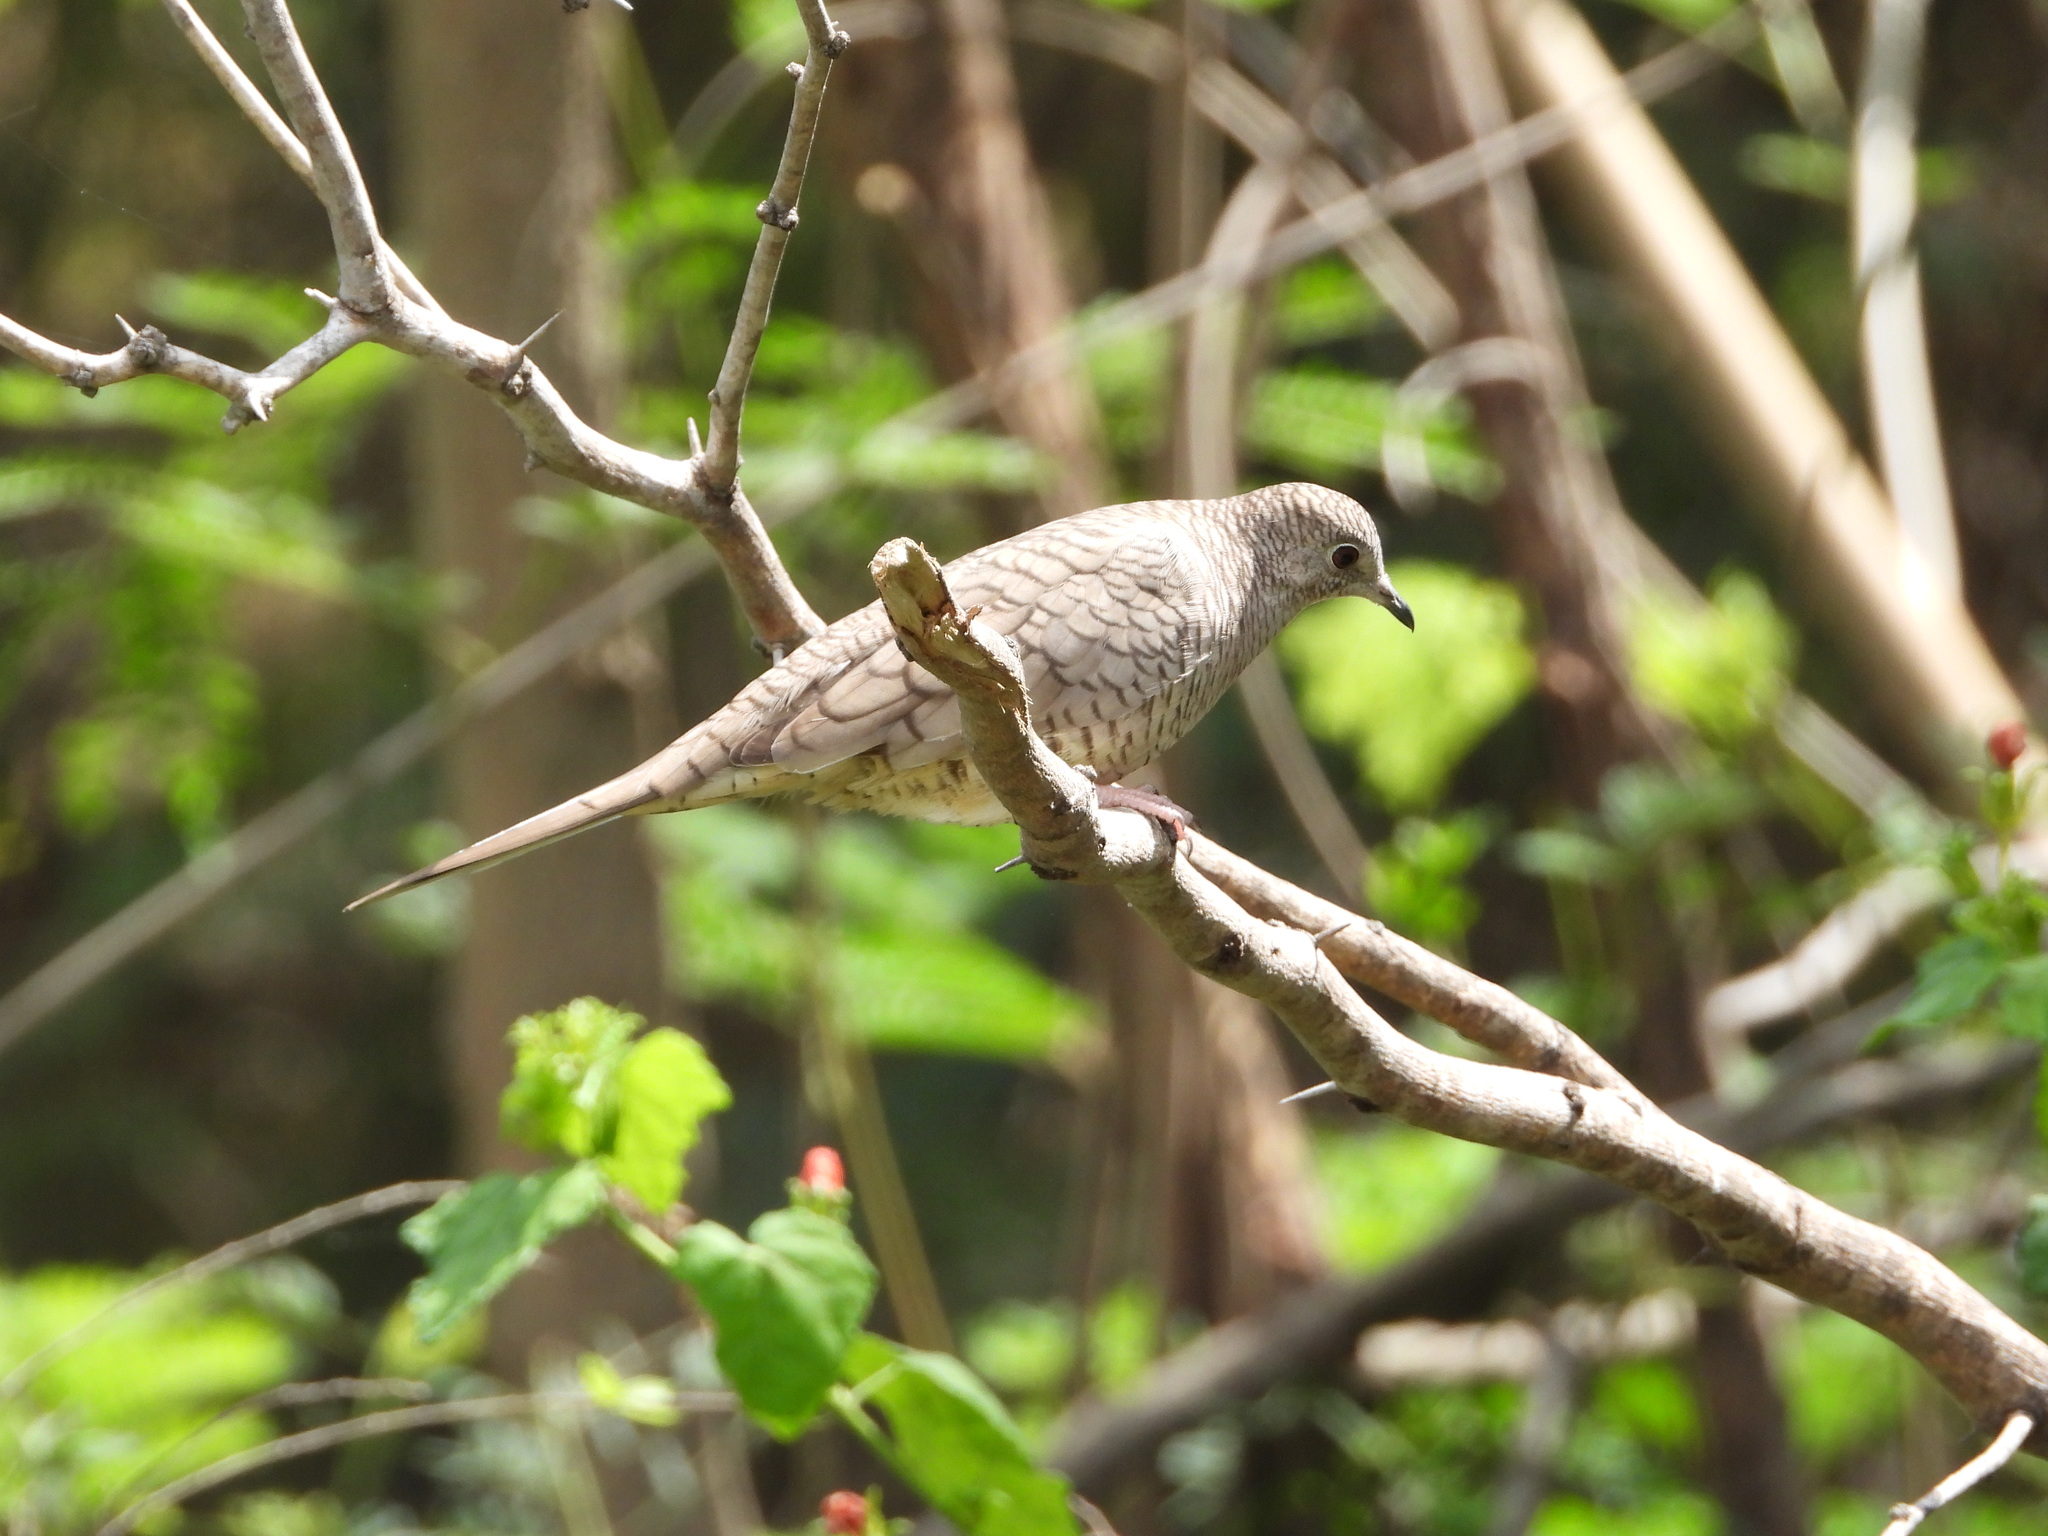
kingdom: Animalia
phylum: Chordata
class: Aves
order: Columbiformes
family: Columbidae
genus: Columbina
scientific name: Columbina inca
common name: Inca dove
